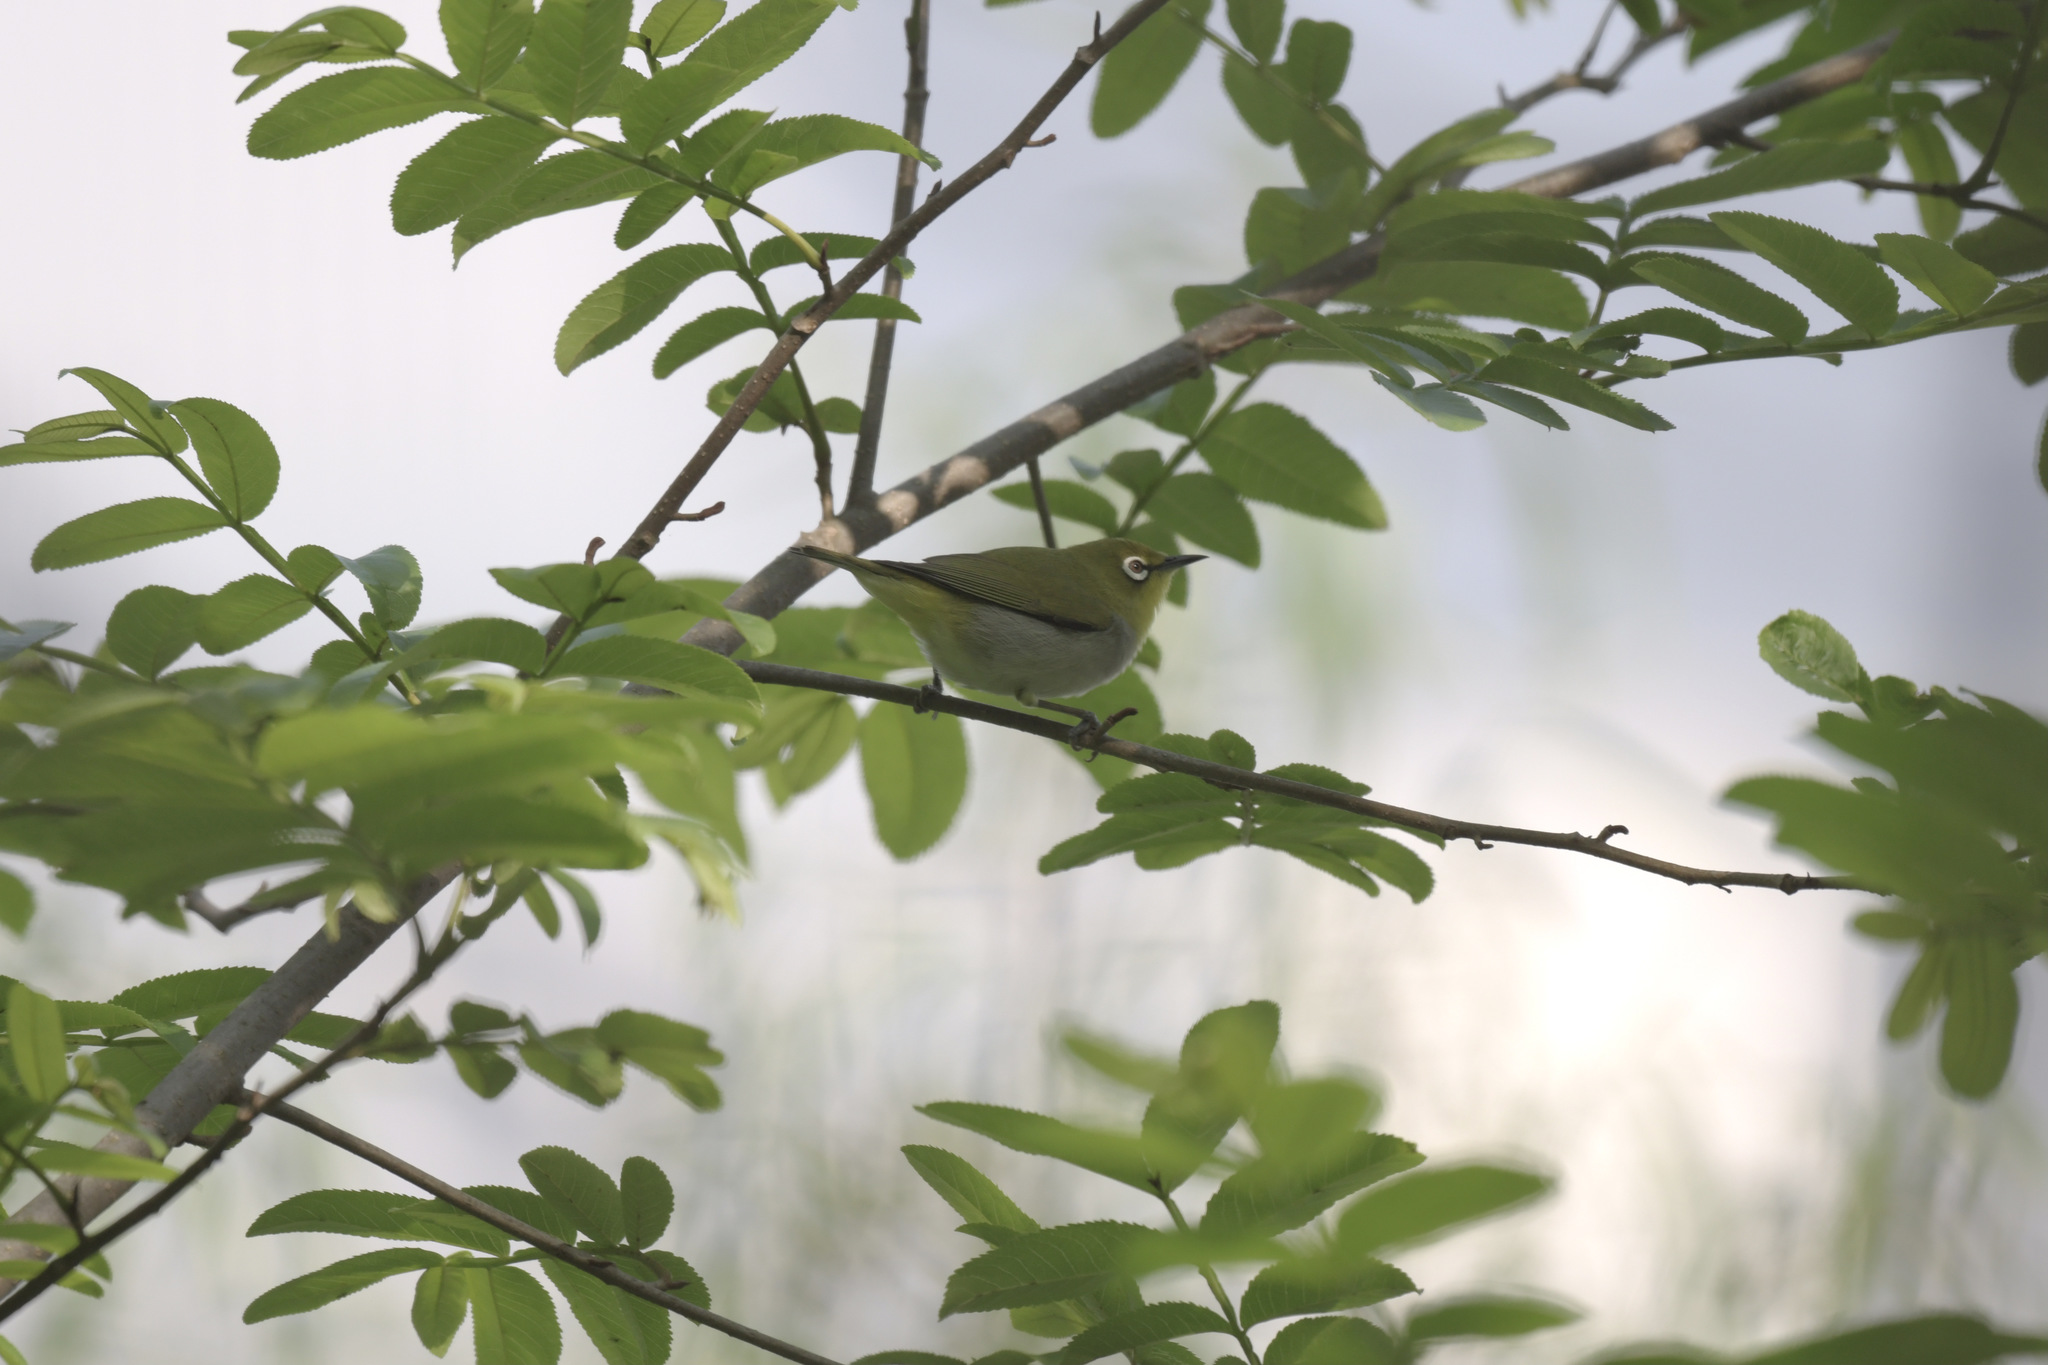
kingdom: Animalia
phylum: Chordata
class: Aves
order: Passeriformes
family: Zosteropidae
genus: Zosterops
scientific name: Zosterops simplex
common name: Swinhoe's white-eye
